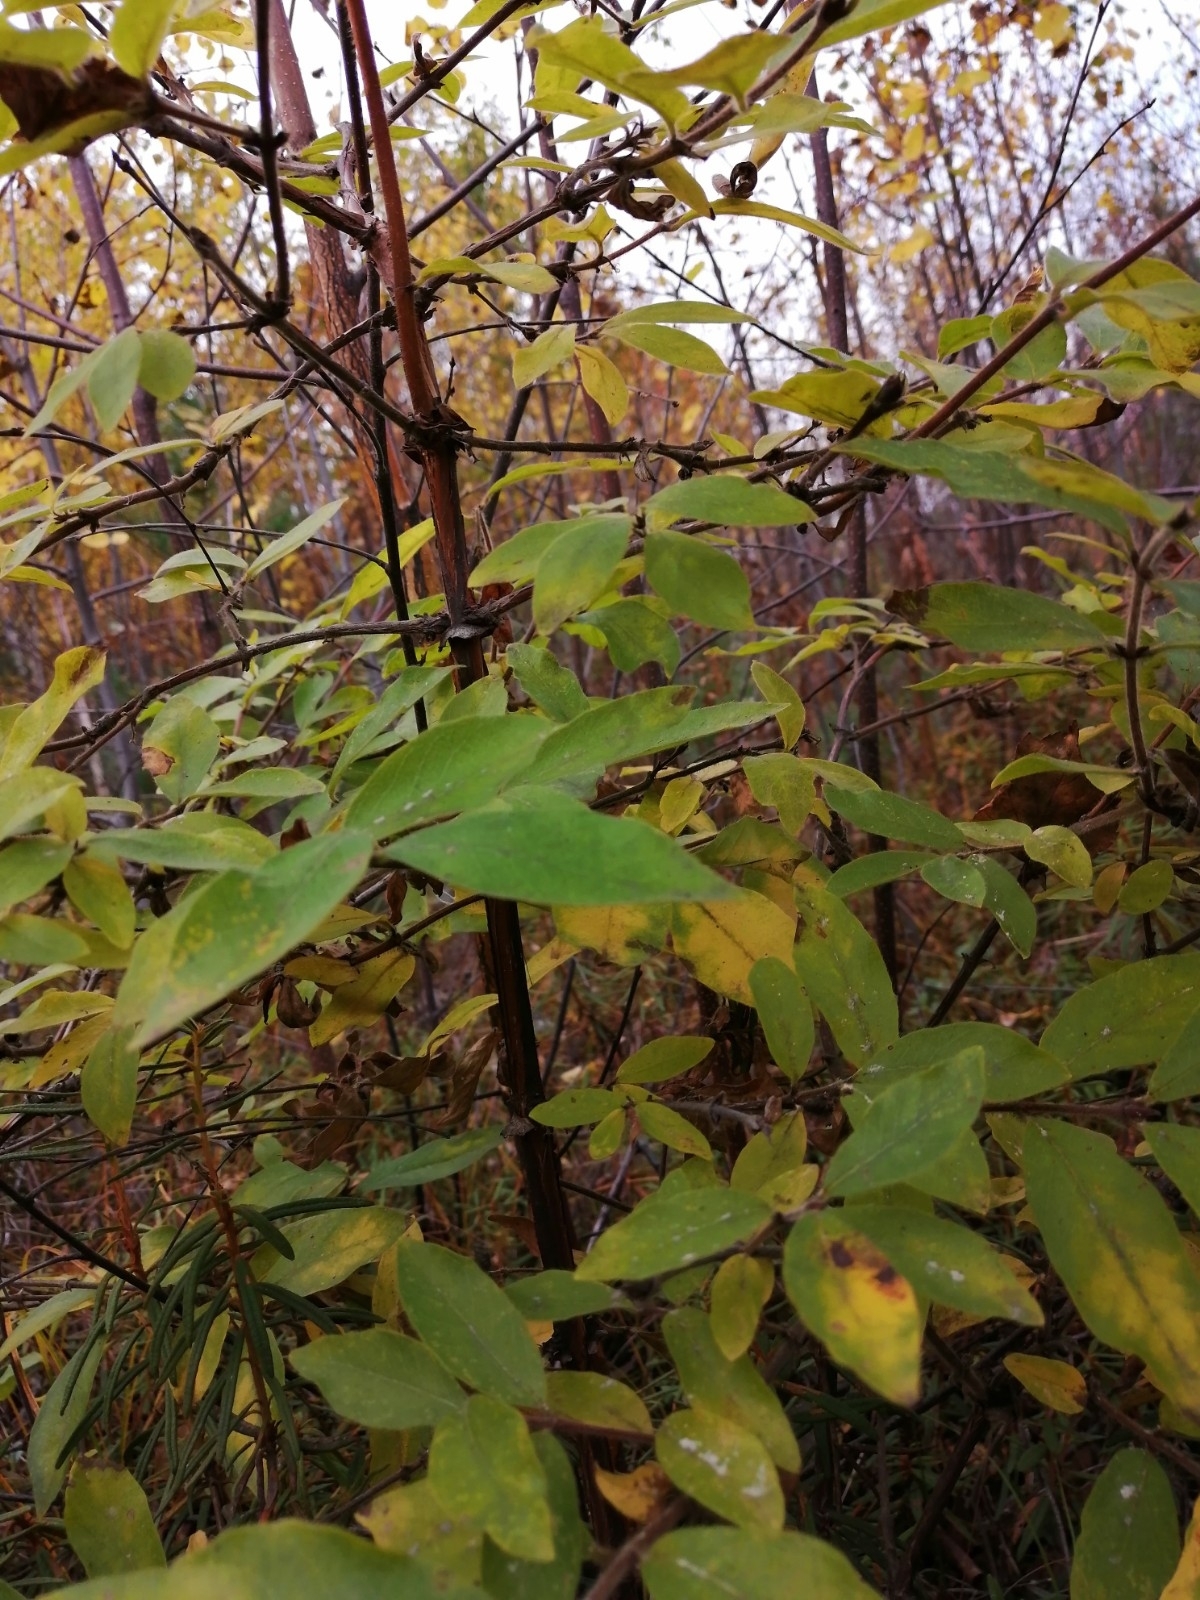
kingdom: Plantae
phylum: Tracheophyta
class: Magnoliopsida
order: Dipsacales
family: Caprifoliaceae
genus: Lonicera
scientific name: Lonicera caerulea
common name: Blue honeysuckle
